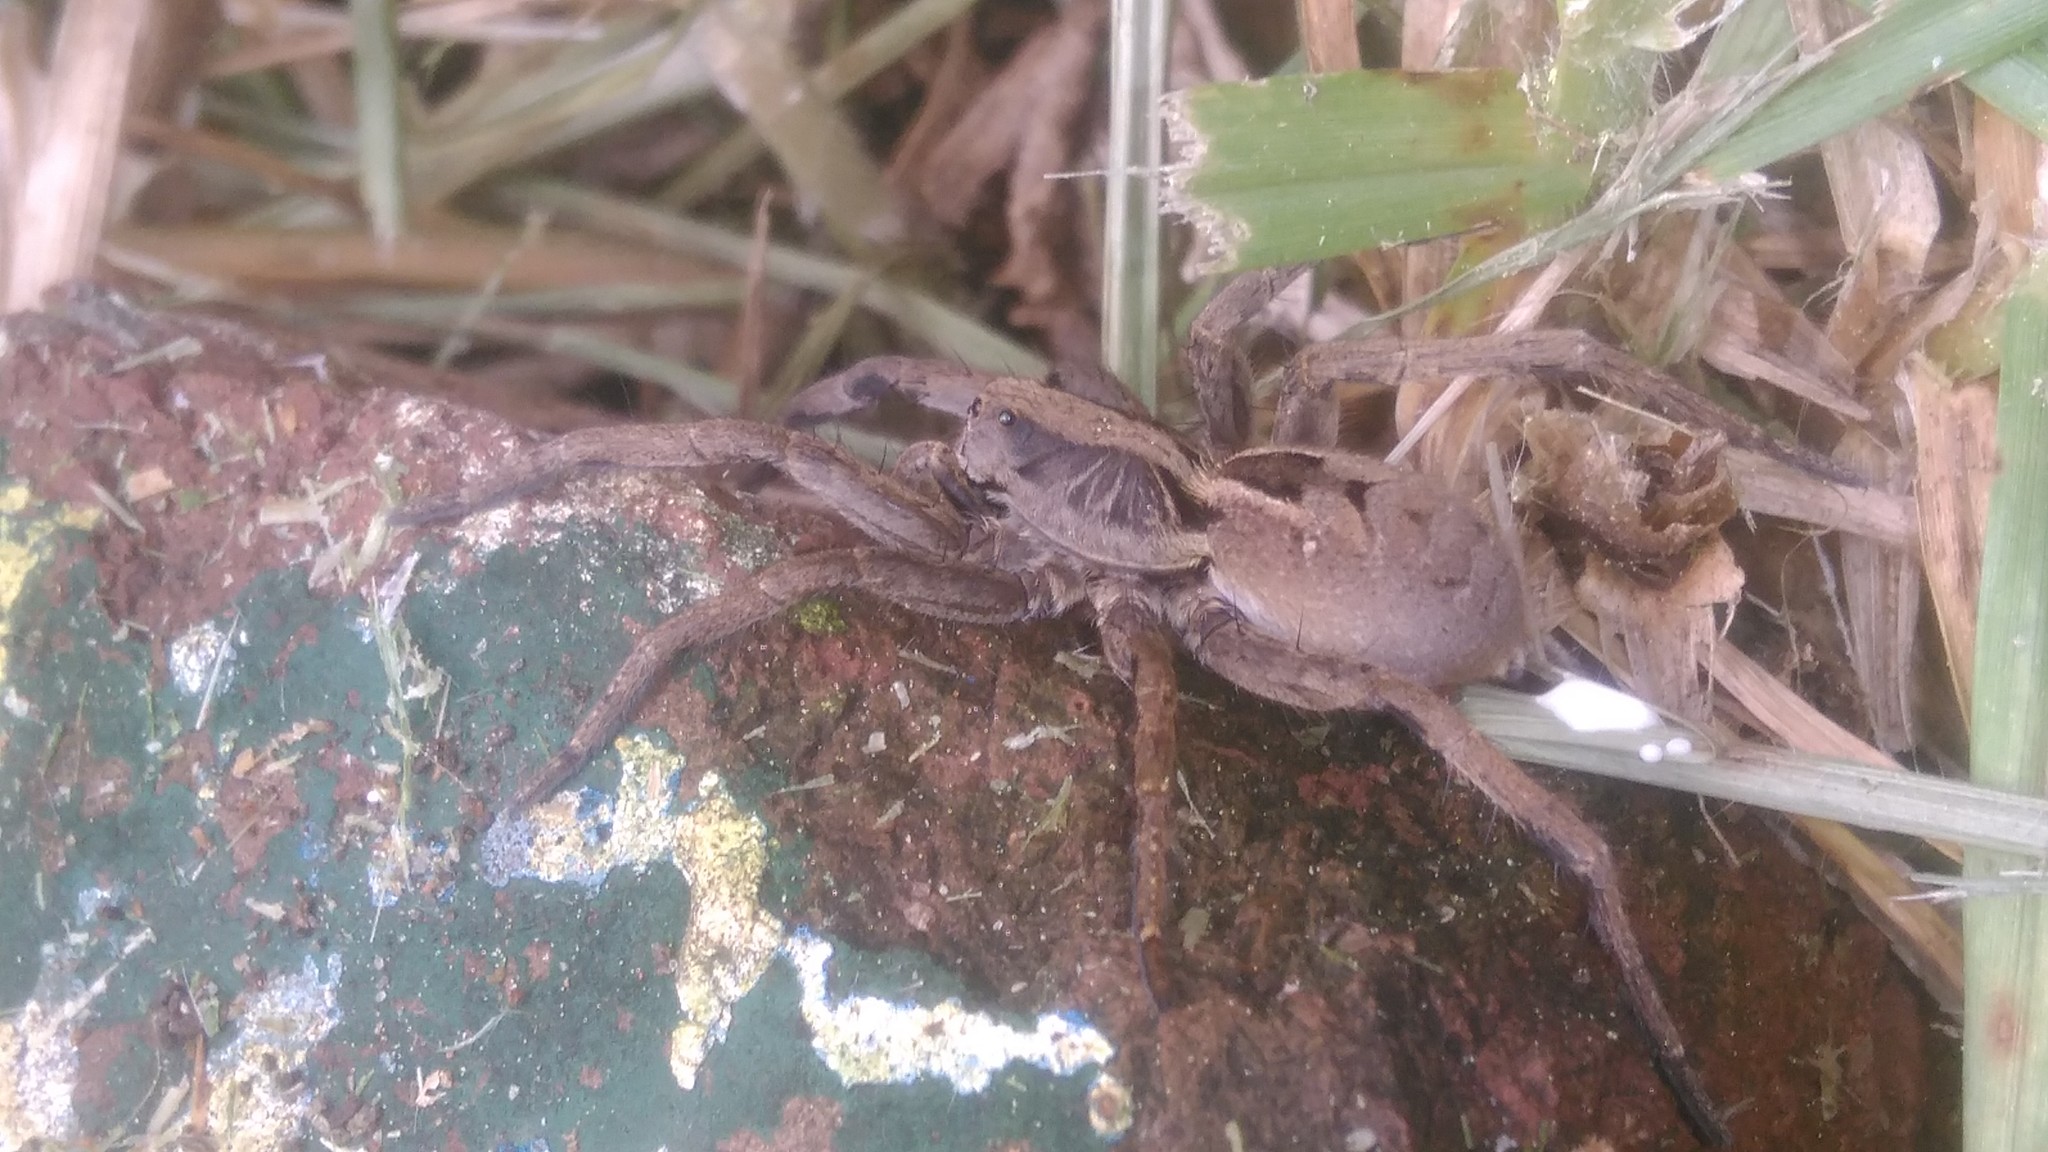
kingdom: Animalia
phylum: Arthropoda
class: Arachnida
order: Araneae
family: Lycosidae
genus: Lycosa
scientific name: Lycosa erythrognatha
